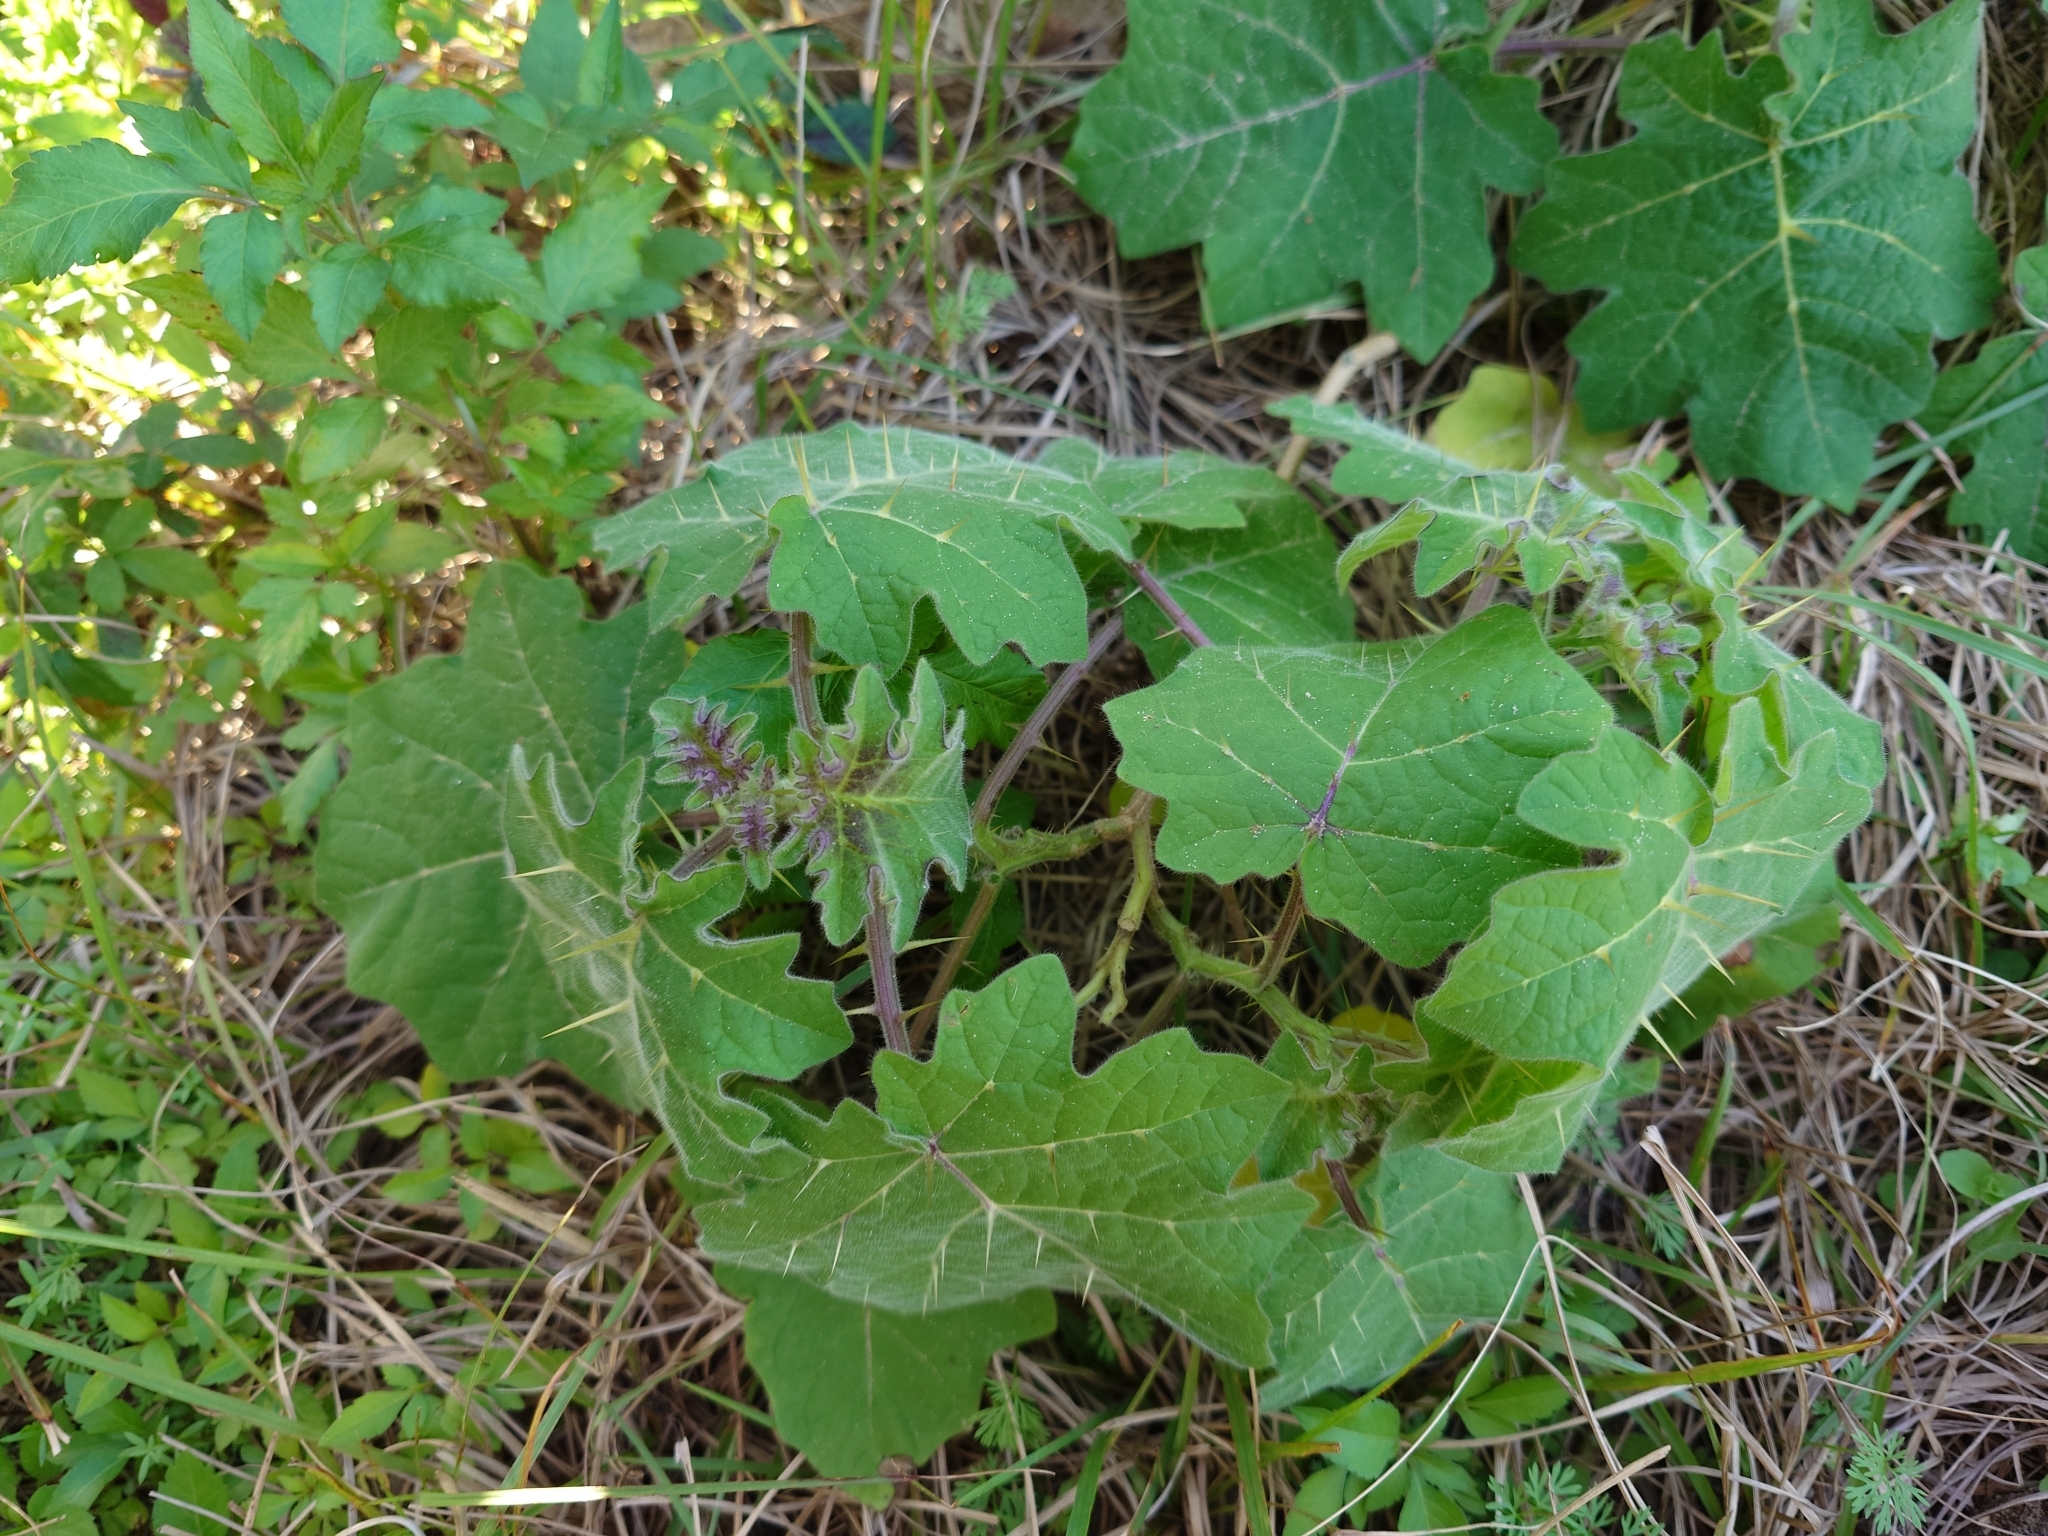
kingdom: Plantae
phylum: Tracheophyta
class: Magnoliopsida
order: Solanales
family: Solanaceae
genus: Solanum
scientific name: Solanum viarum
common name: Tropical soda apple
